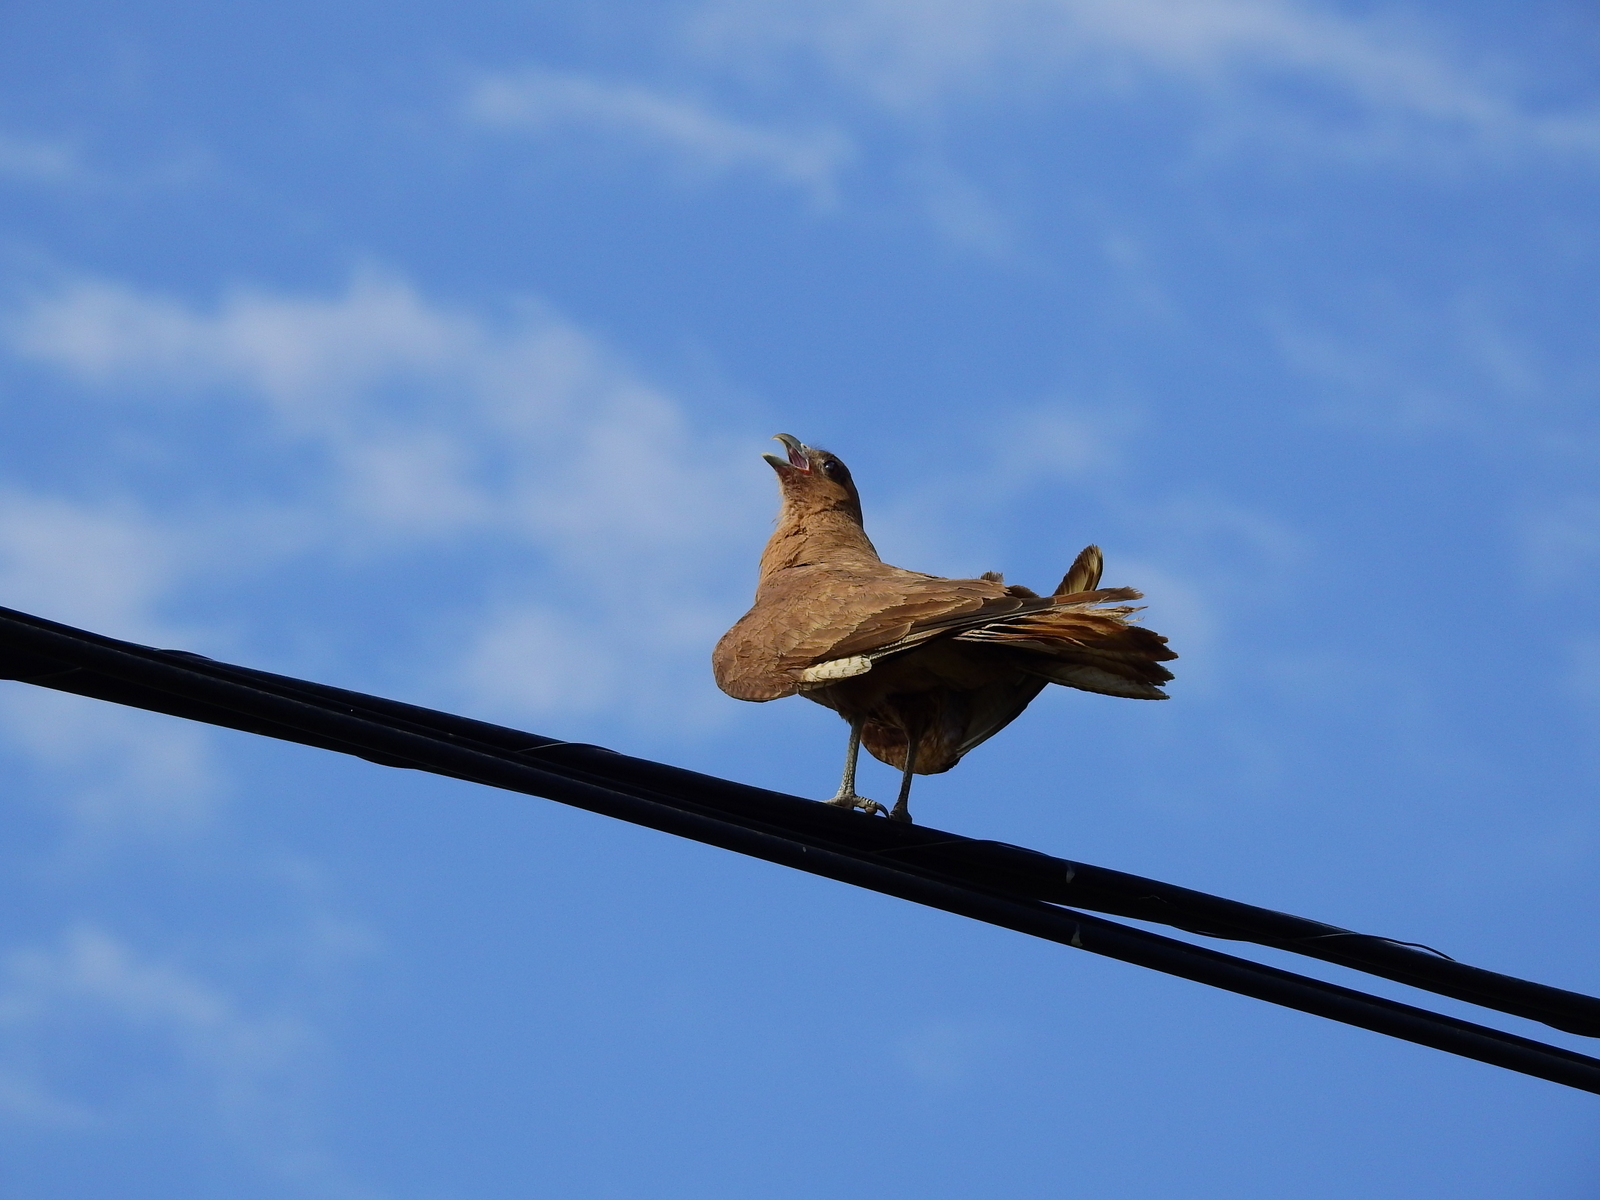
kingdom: Animalia
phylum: Chordata
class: Aves
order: Falconiformes
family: Falconidae
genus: Daptrius
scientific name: Daptrius
